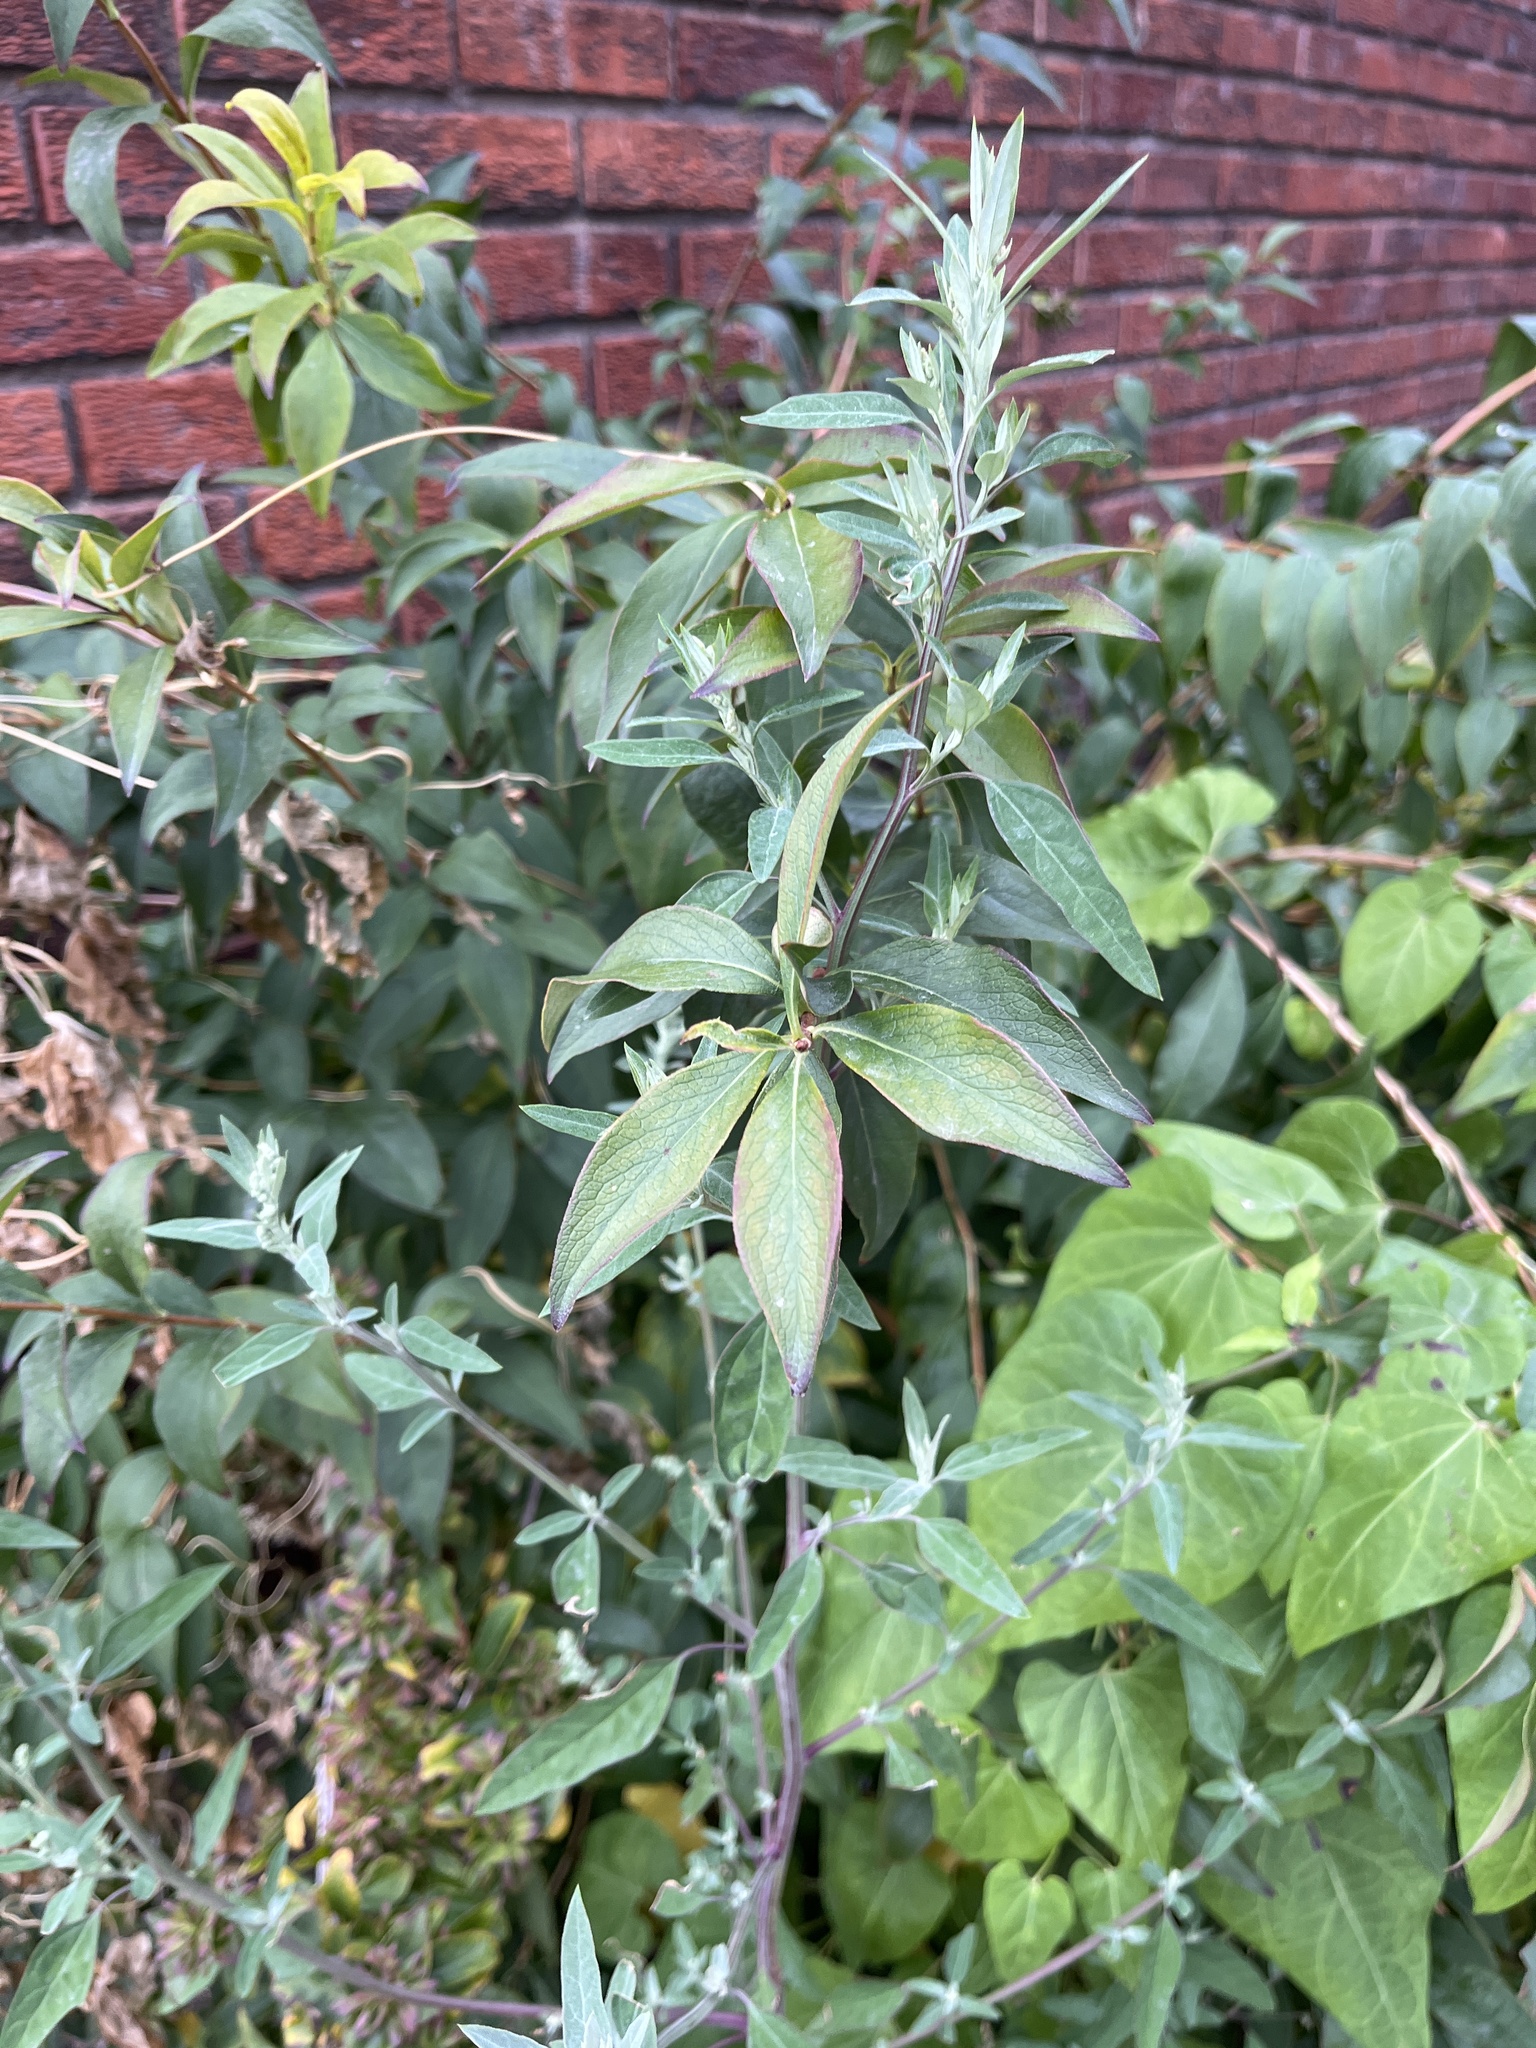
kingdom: Plantae
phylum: Tracheophyta
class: Magnoliopsida
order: Lamiales
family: Scrophulariaceae
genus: Buddleja
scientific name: Buddleja davidii
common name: Butterfly-bush
